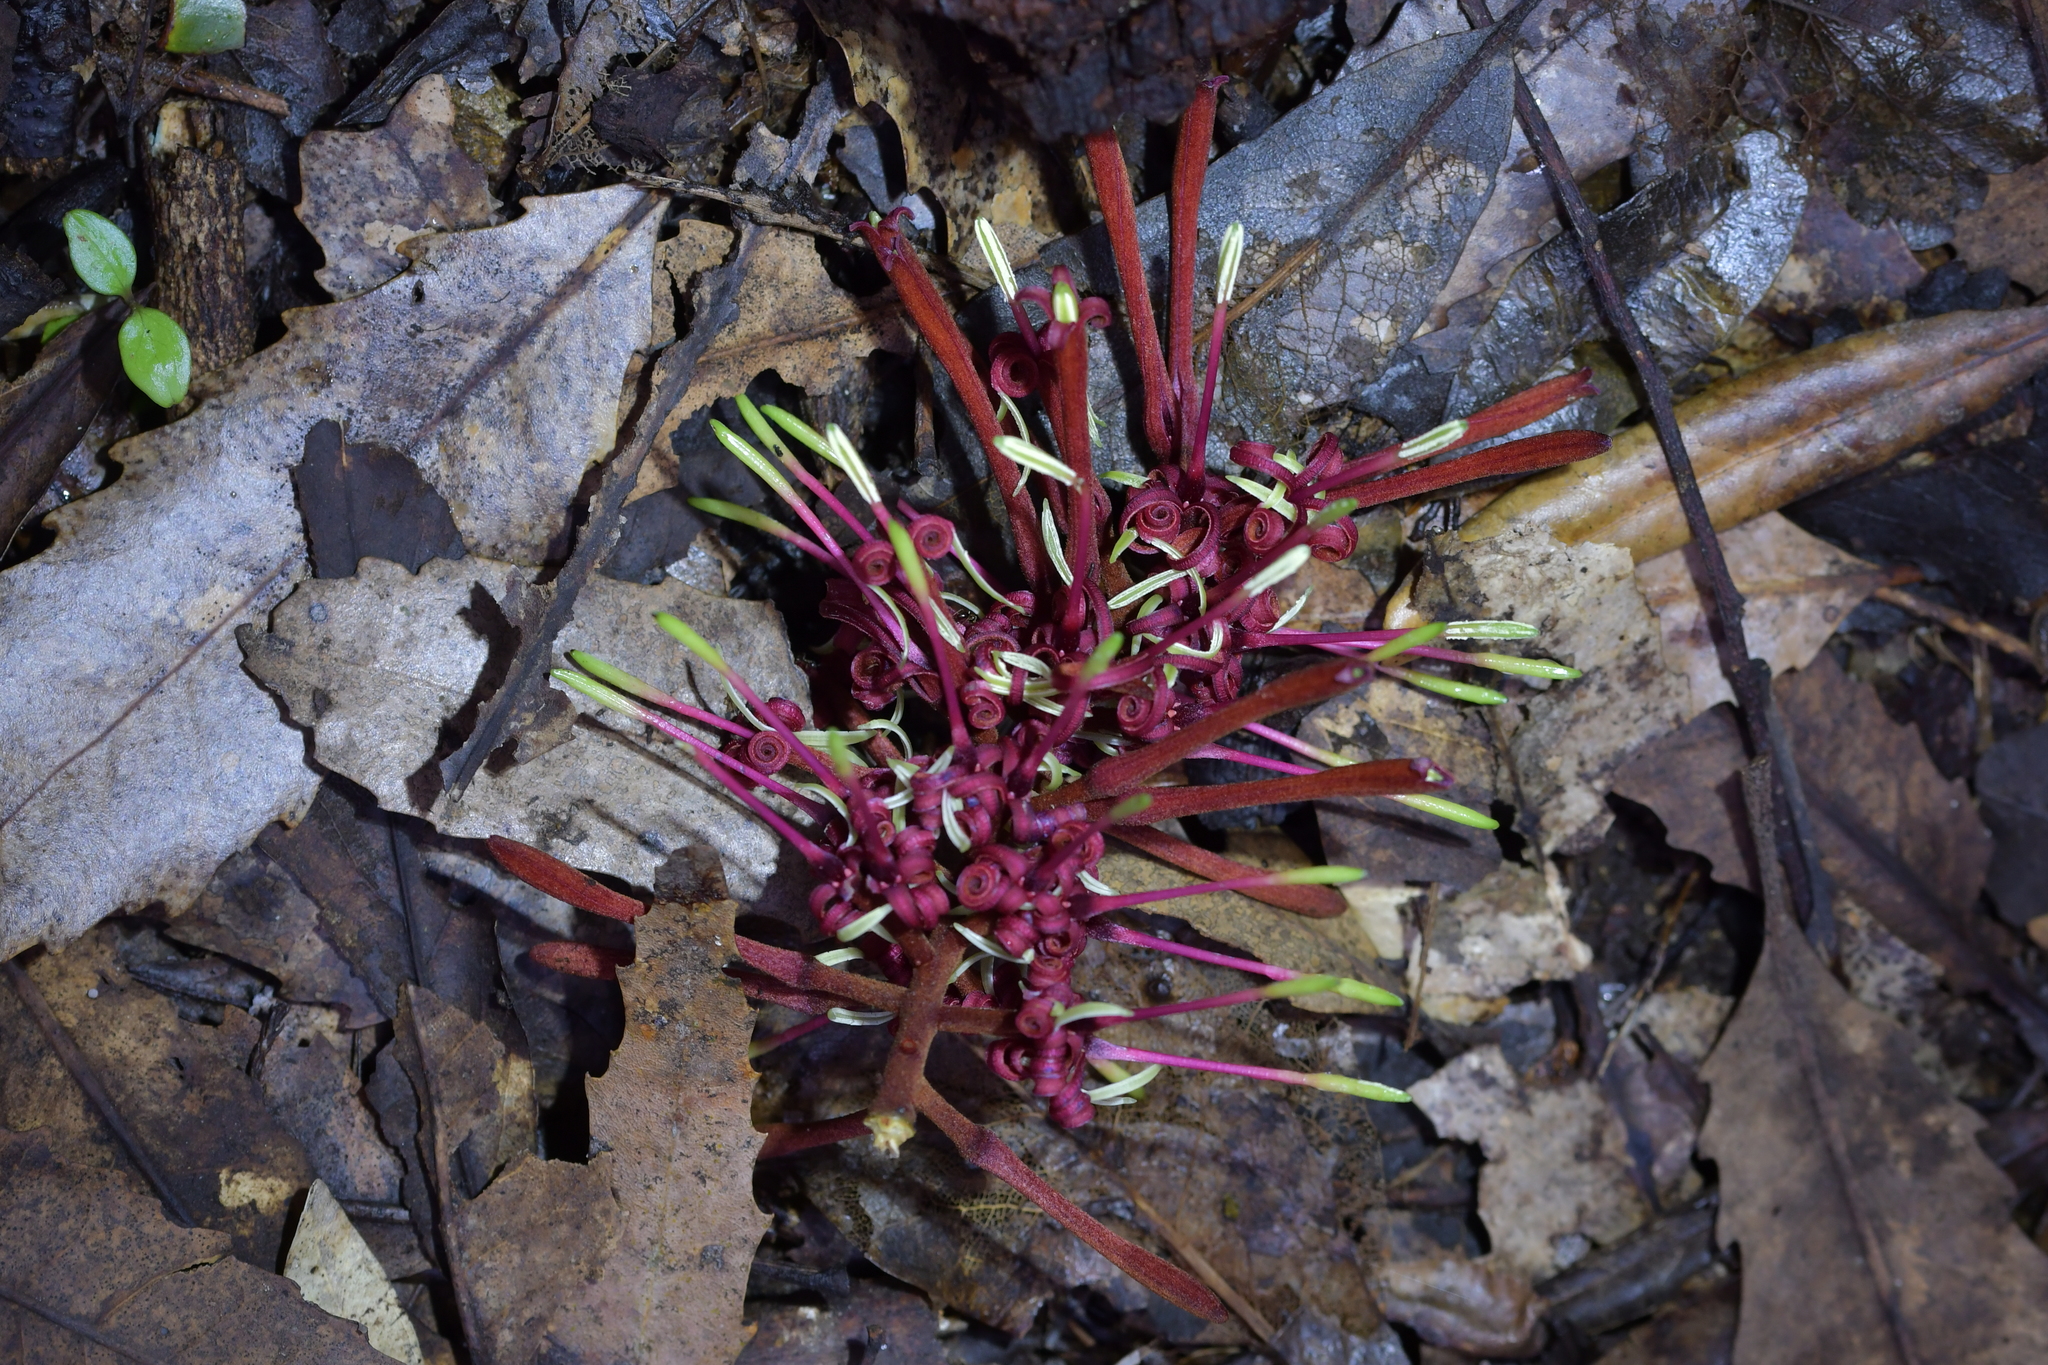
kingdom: Plantae
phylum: Tracheophyta
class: Magnoliopsida
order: Proteales
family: Proteaceae
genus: Knightia
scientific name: Knightia excelsa
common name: New zealand-honeysuckle
